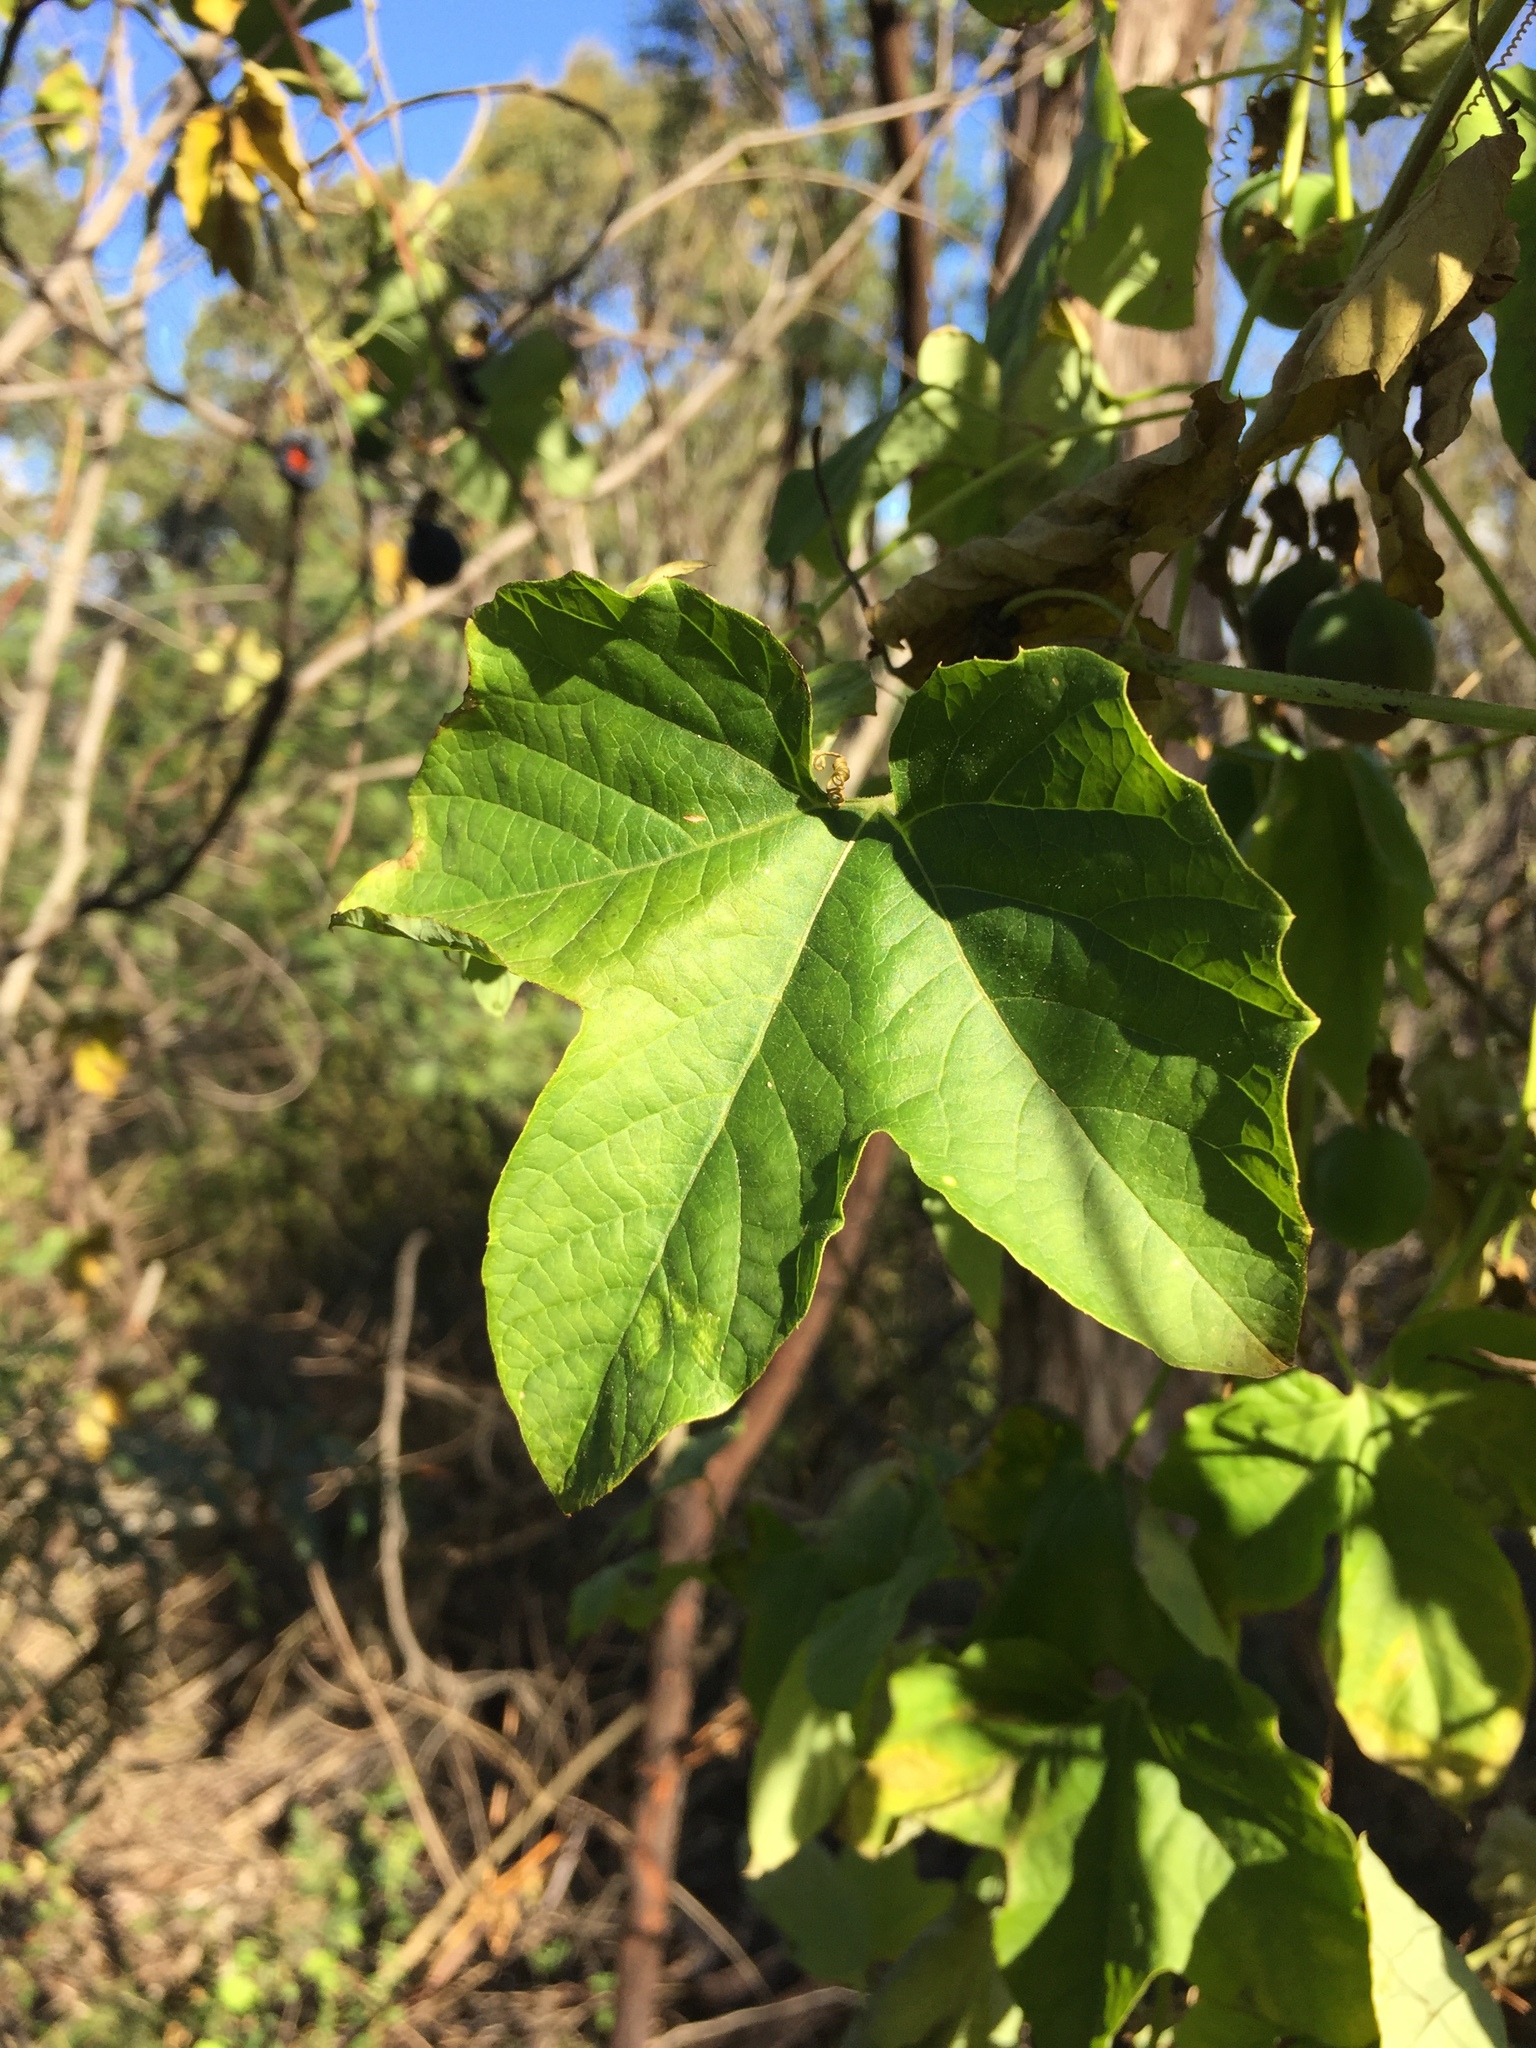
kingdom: Plantae
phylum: Tracheophyta
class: Magnoliopsida
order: Malpighiales
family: Passifloraceae
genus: Passiflora
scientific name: Passiflora morifolia
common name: Woodland passionflower
